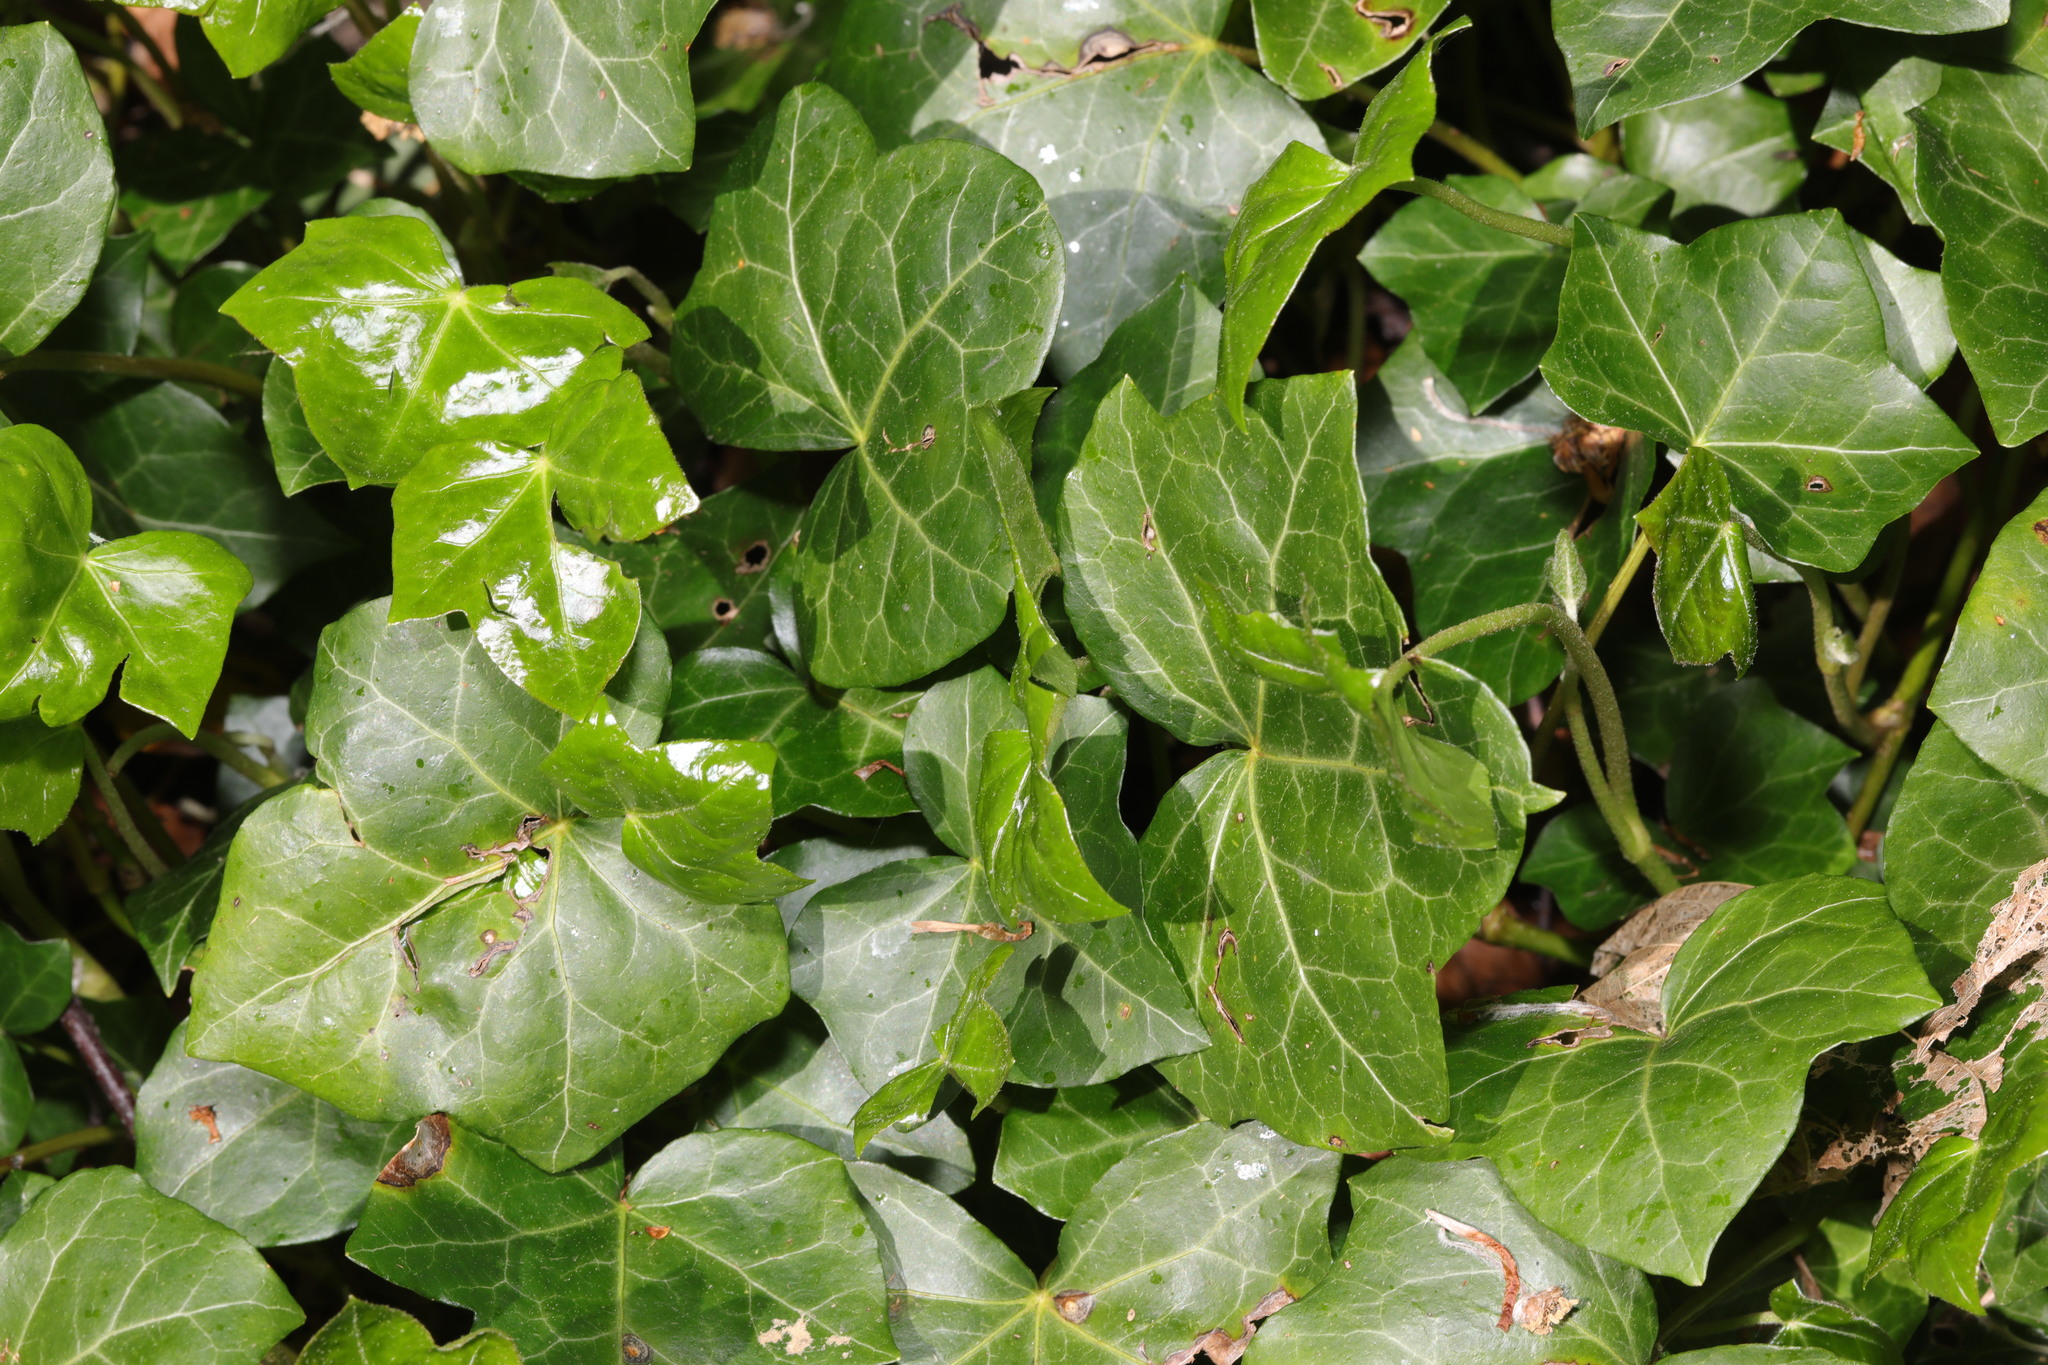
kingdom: Plantae
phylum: Tracheophyta
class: Magnoliopsida
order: Apiales
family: Araliaceae
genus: Hedera
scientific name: Hedera helix
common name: Ivy
